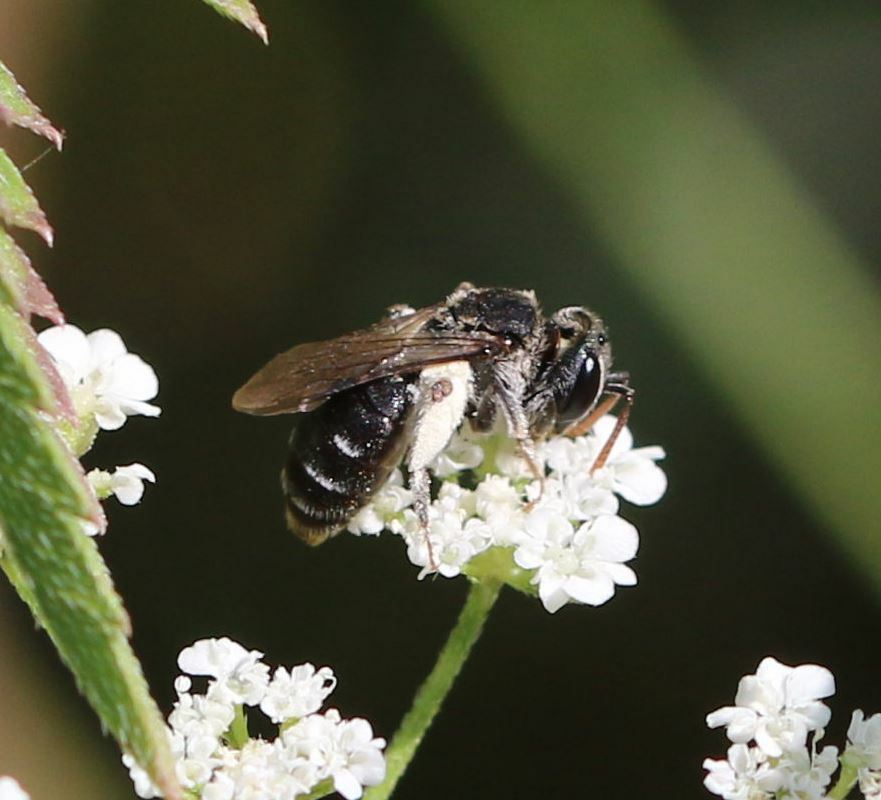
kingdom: Animalia
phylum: Arthropoda
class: Insecta
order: Hymenoptera
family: Andrenidae
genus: Andrena
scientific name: Andrena colletiformis
